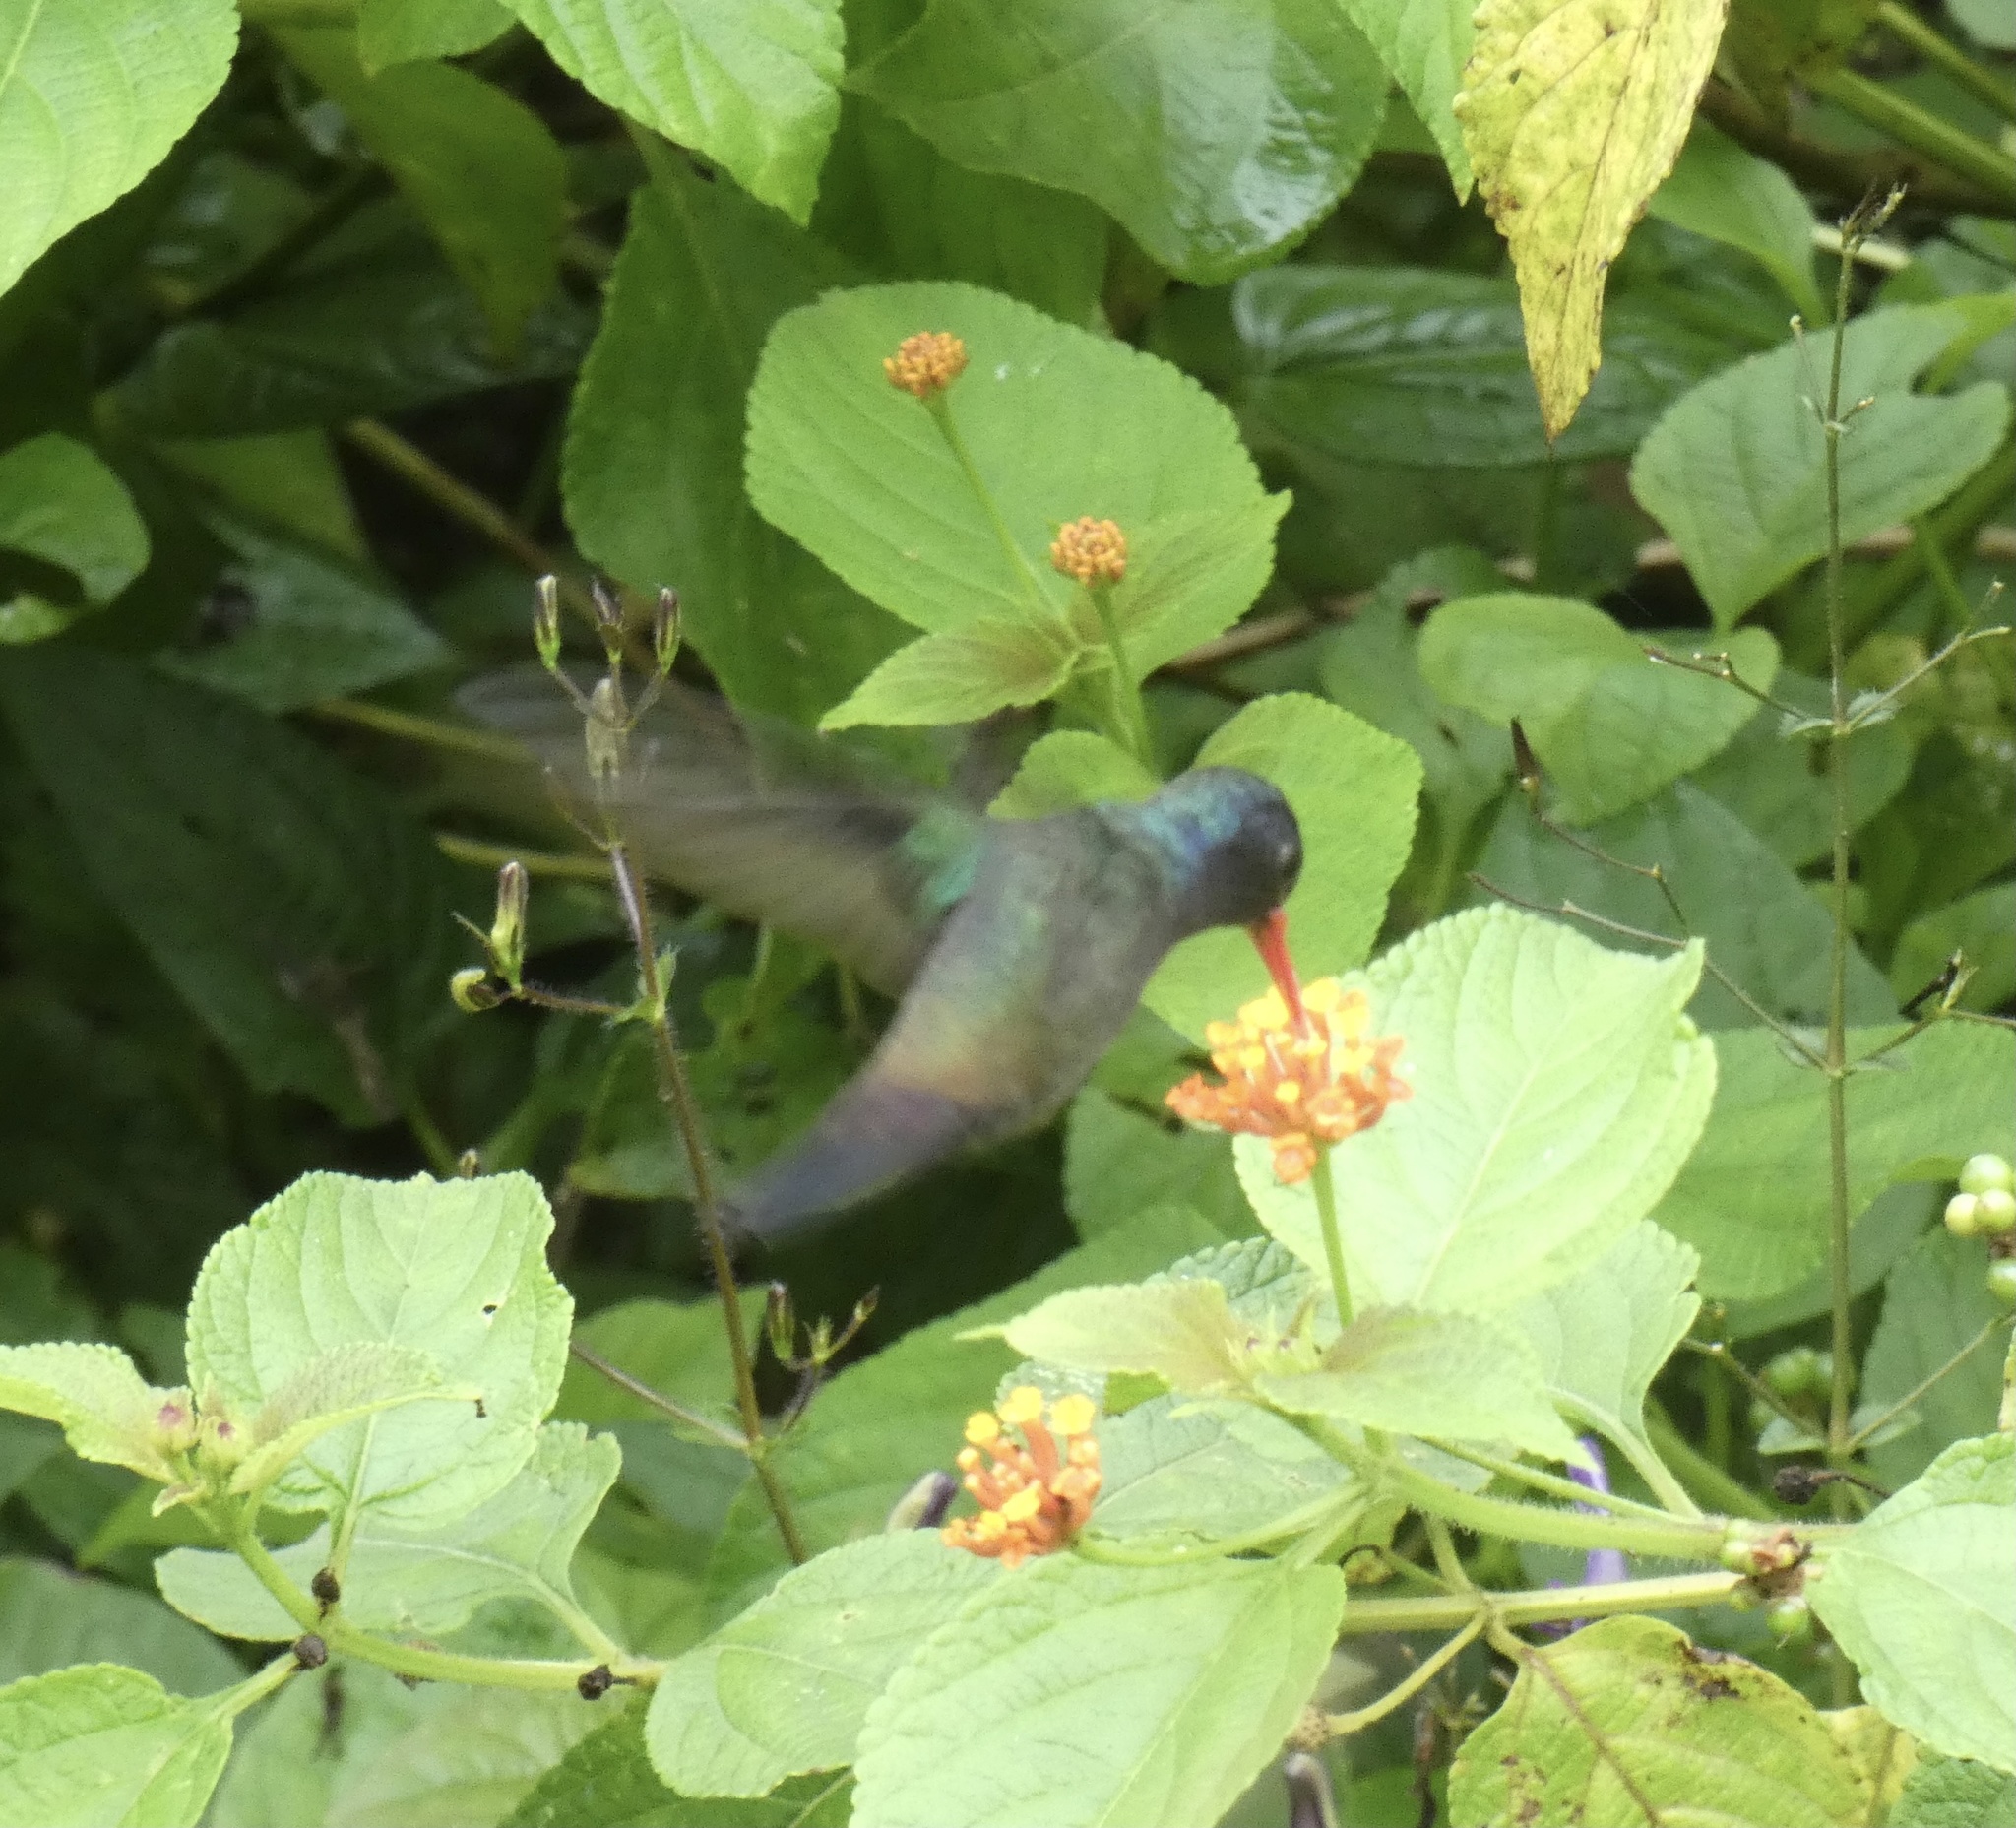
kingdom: Animalia
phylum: Chordata
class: Aves
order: Apodiformes
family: Trochilidae
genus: Chlorestes
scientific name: Chlorestes cyanus
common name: White-chinned sapphire
